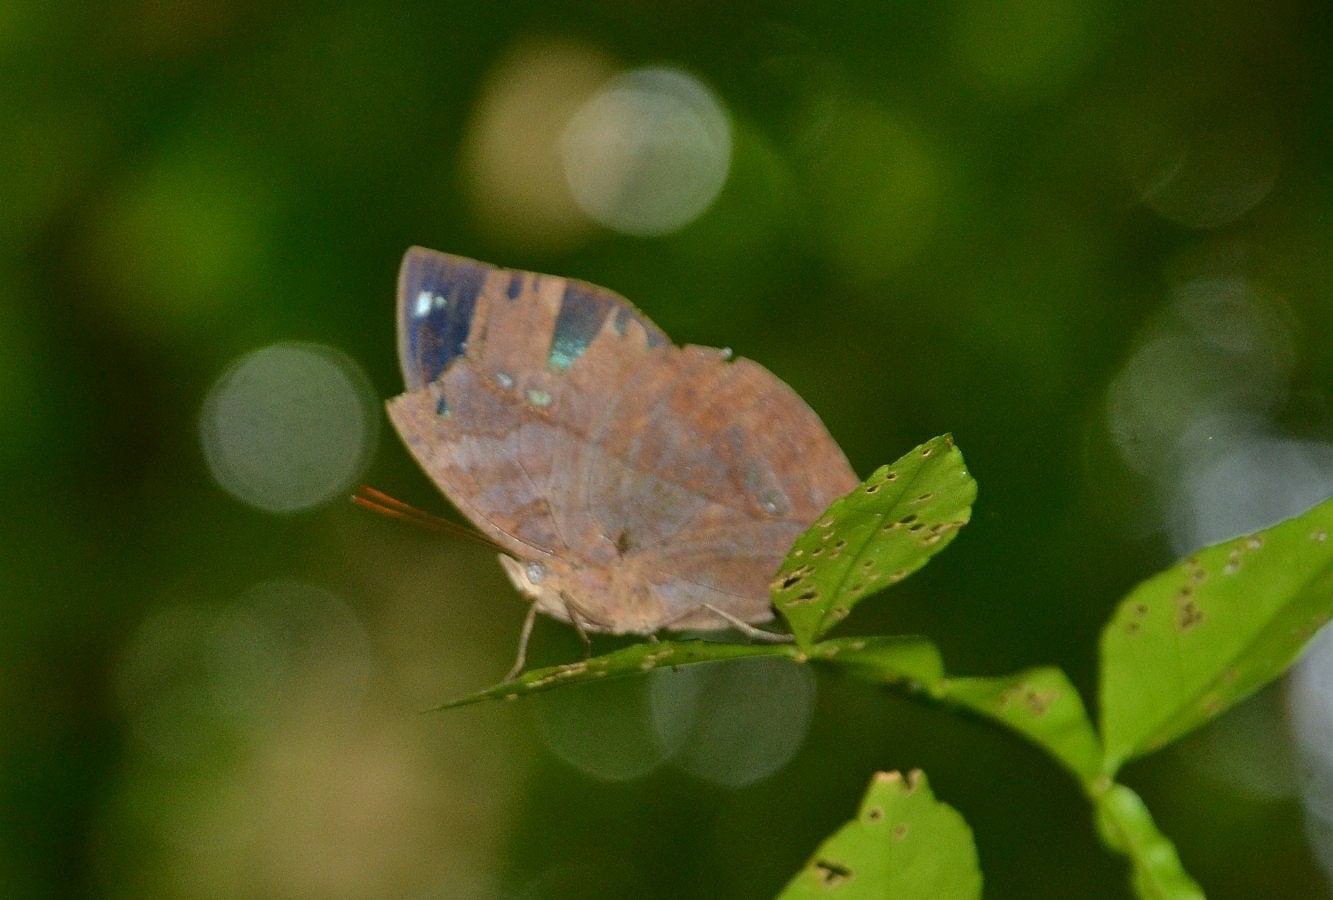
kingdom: Animalia
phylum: Arthropoda
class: Insecta
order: Lepidoptera
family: Nymphalidae
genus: Kallima
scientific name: Kallima horsfieldii
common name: Sahyadri blue oakleaf
